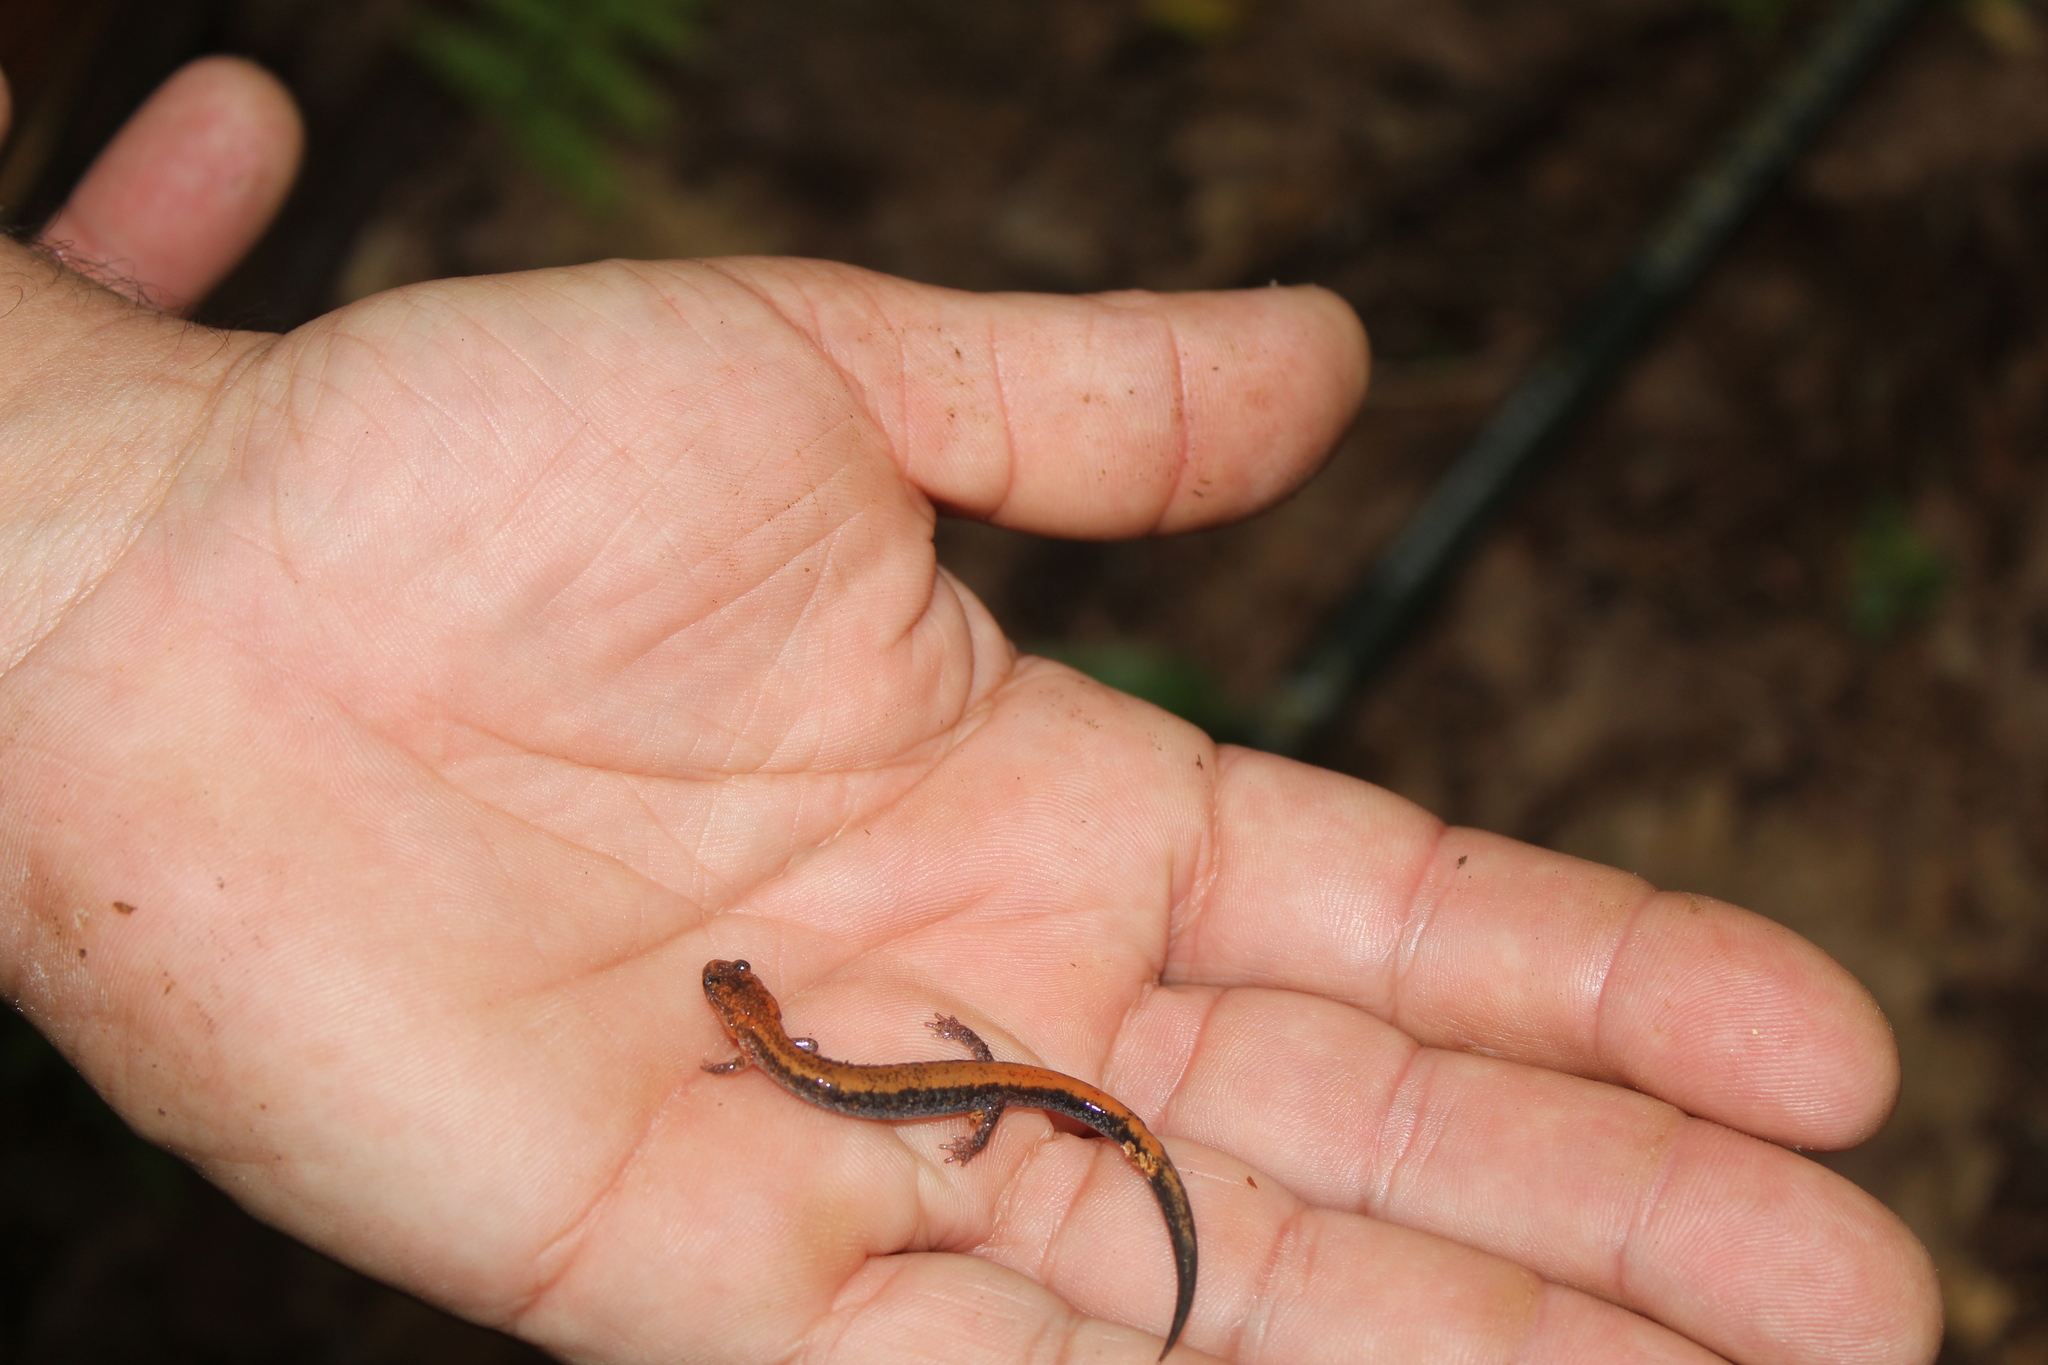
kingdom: Animalia
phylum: Chordata
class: Amphibia
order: Caudata
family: Plethodontidae
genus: Plethodon
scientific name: Plethodon cinereus
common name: Redback salamander
